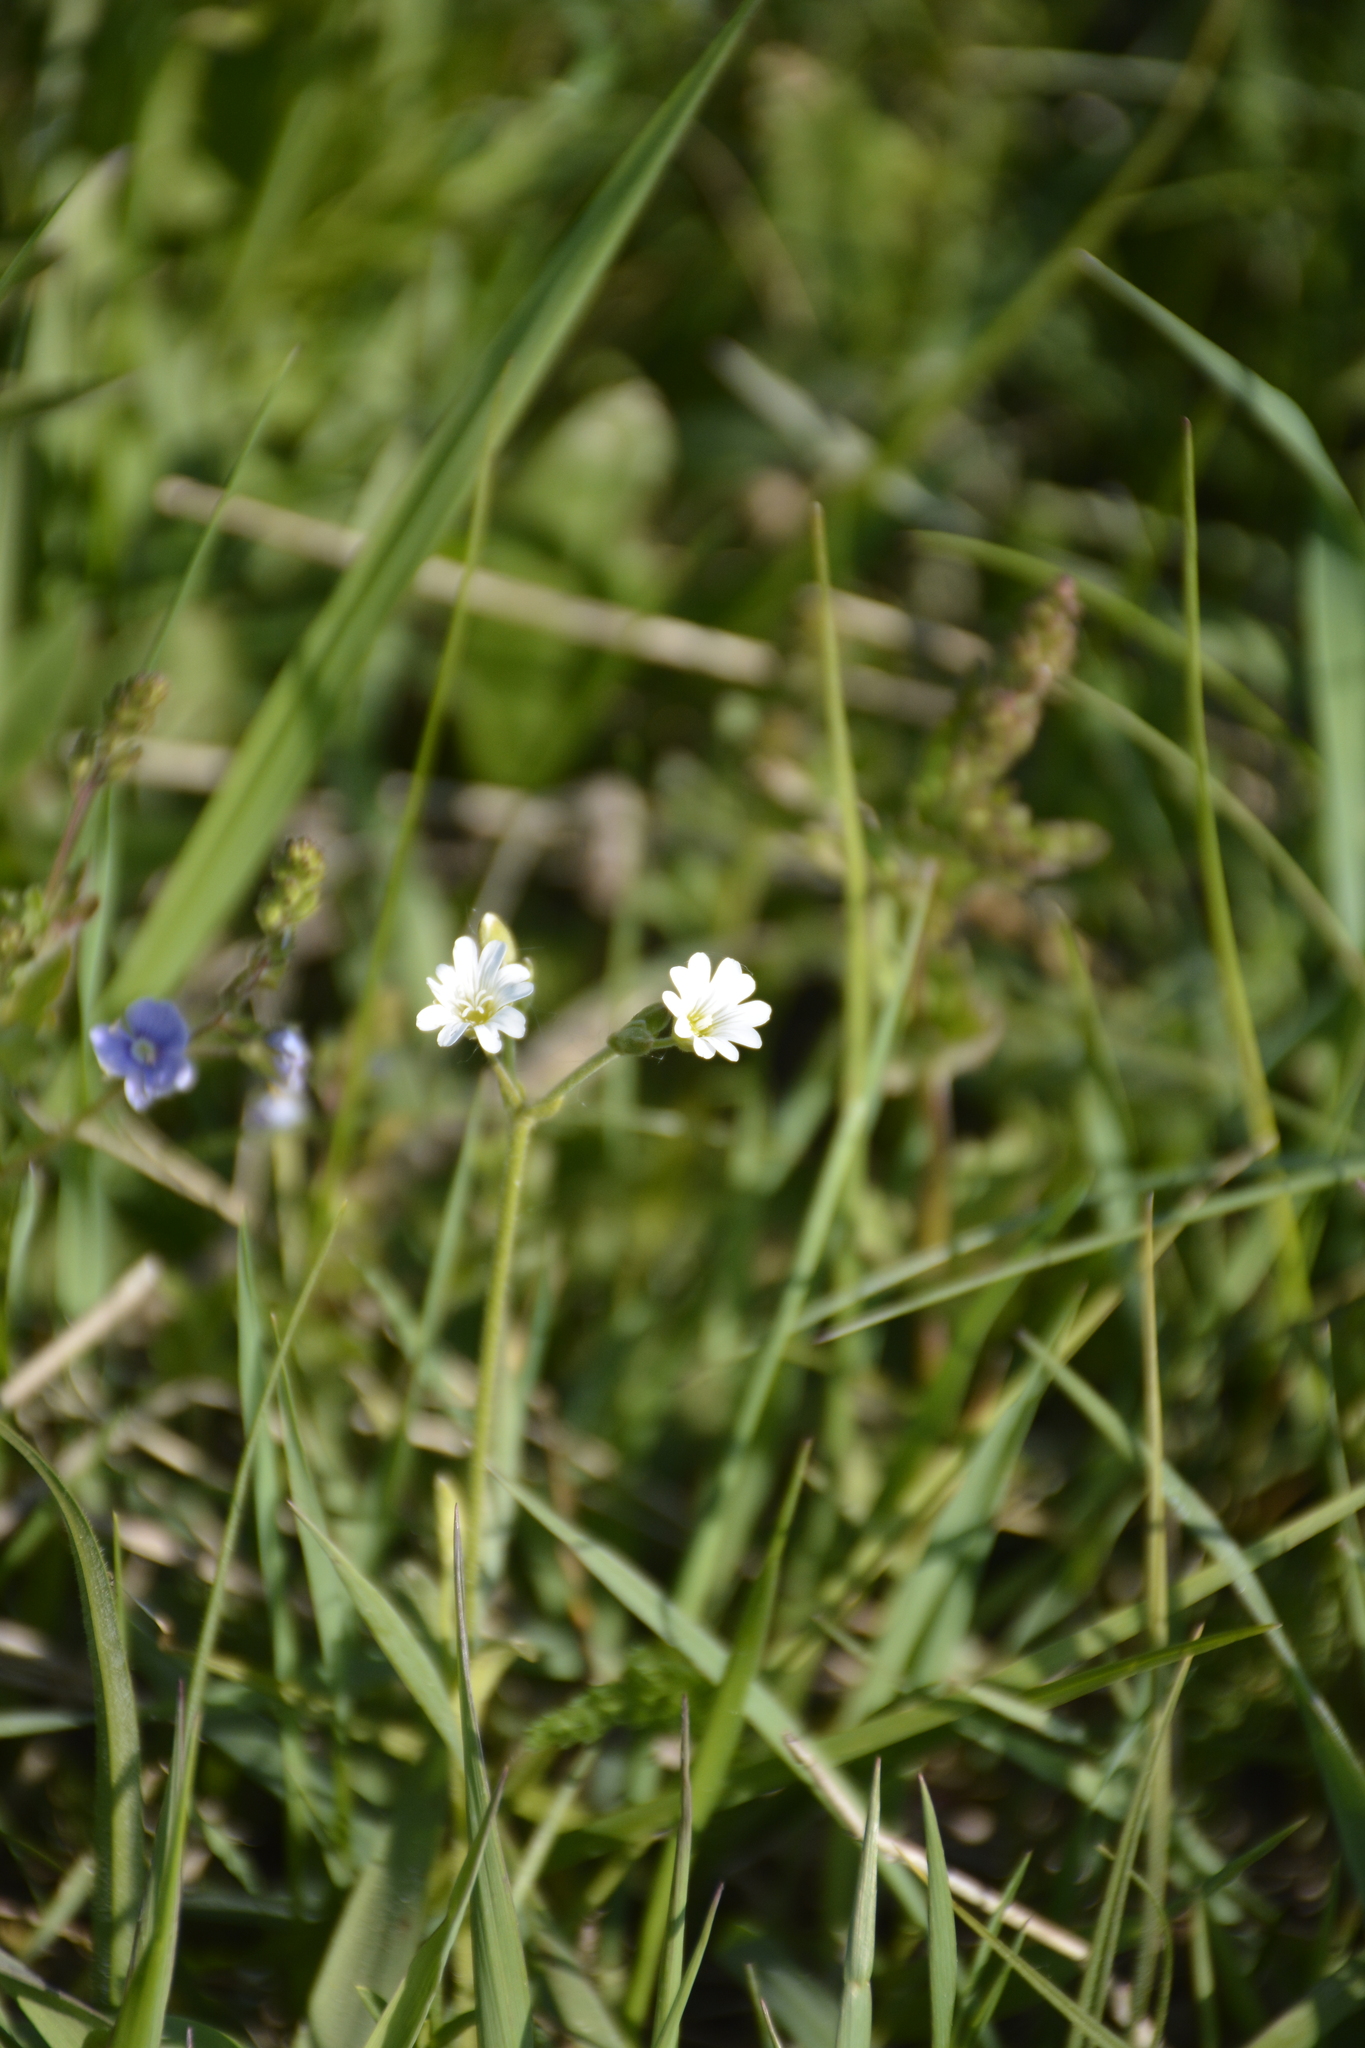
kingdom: Plantae
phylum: Tracheophyta
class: Magnoliopsida
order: Caryophyllales
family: Caryophyllaceae
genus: Cerastium
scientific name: Cerastium arvense
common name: Field mouse-ear
